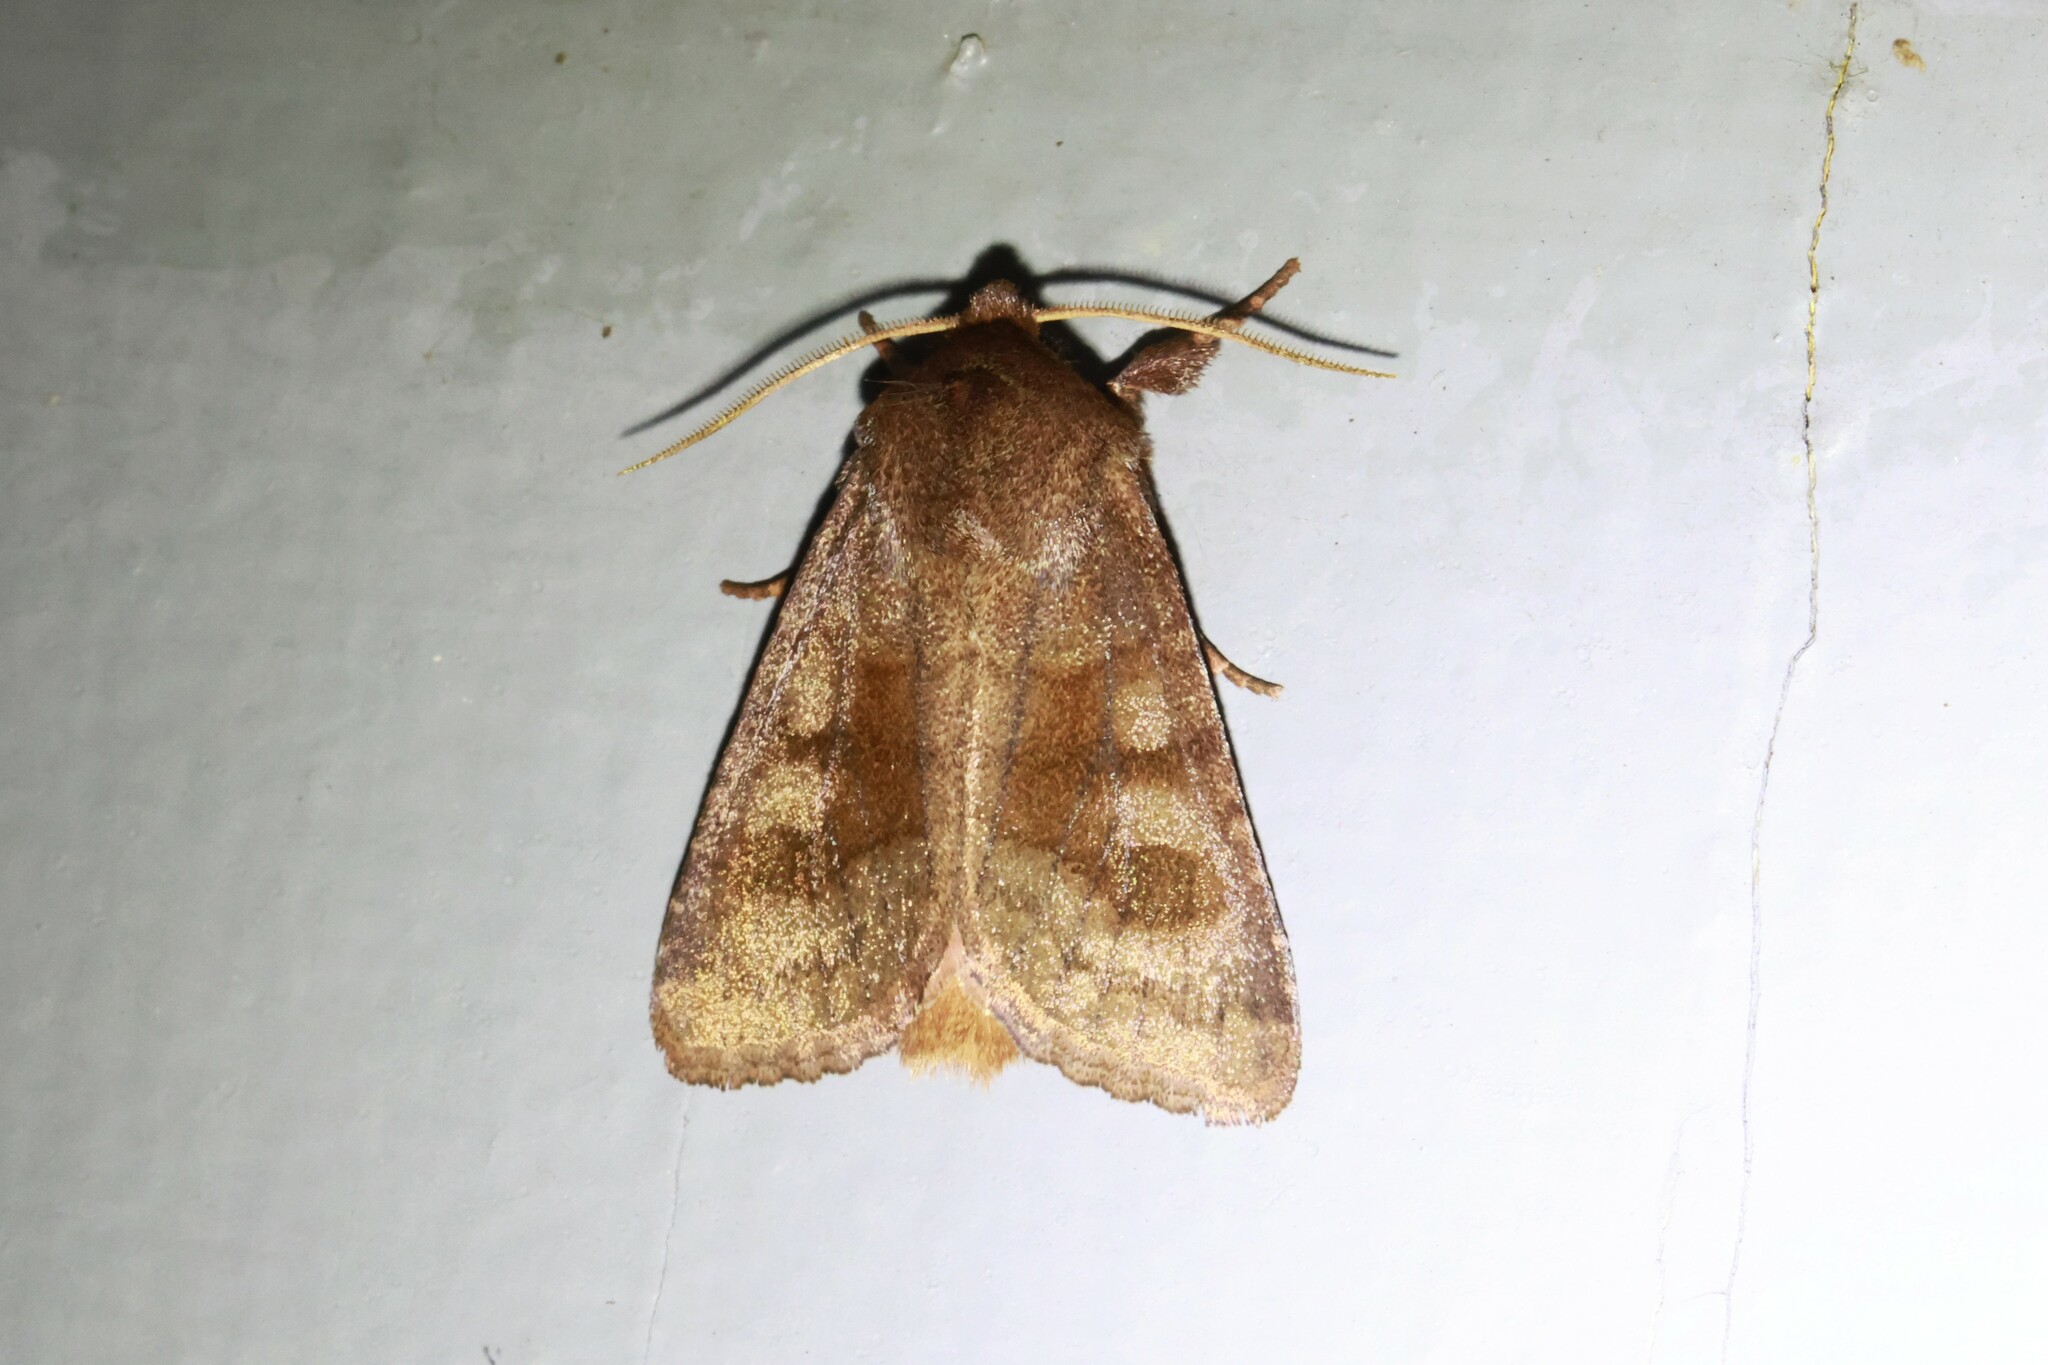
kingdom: Animalia
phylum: Arthropoda
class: Insecta
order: Lepidoptera
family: Noctuidae
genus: Nephelodes
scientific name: Nephelodes minians
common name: Bronzed cutworm
